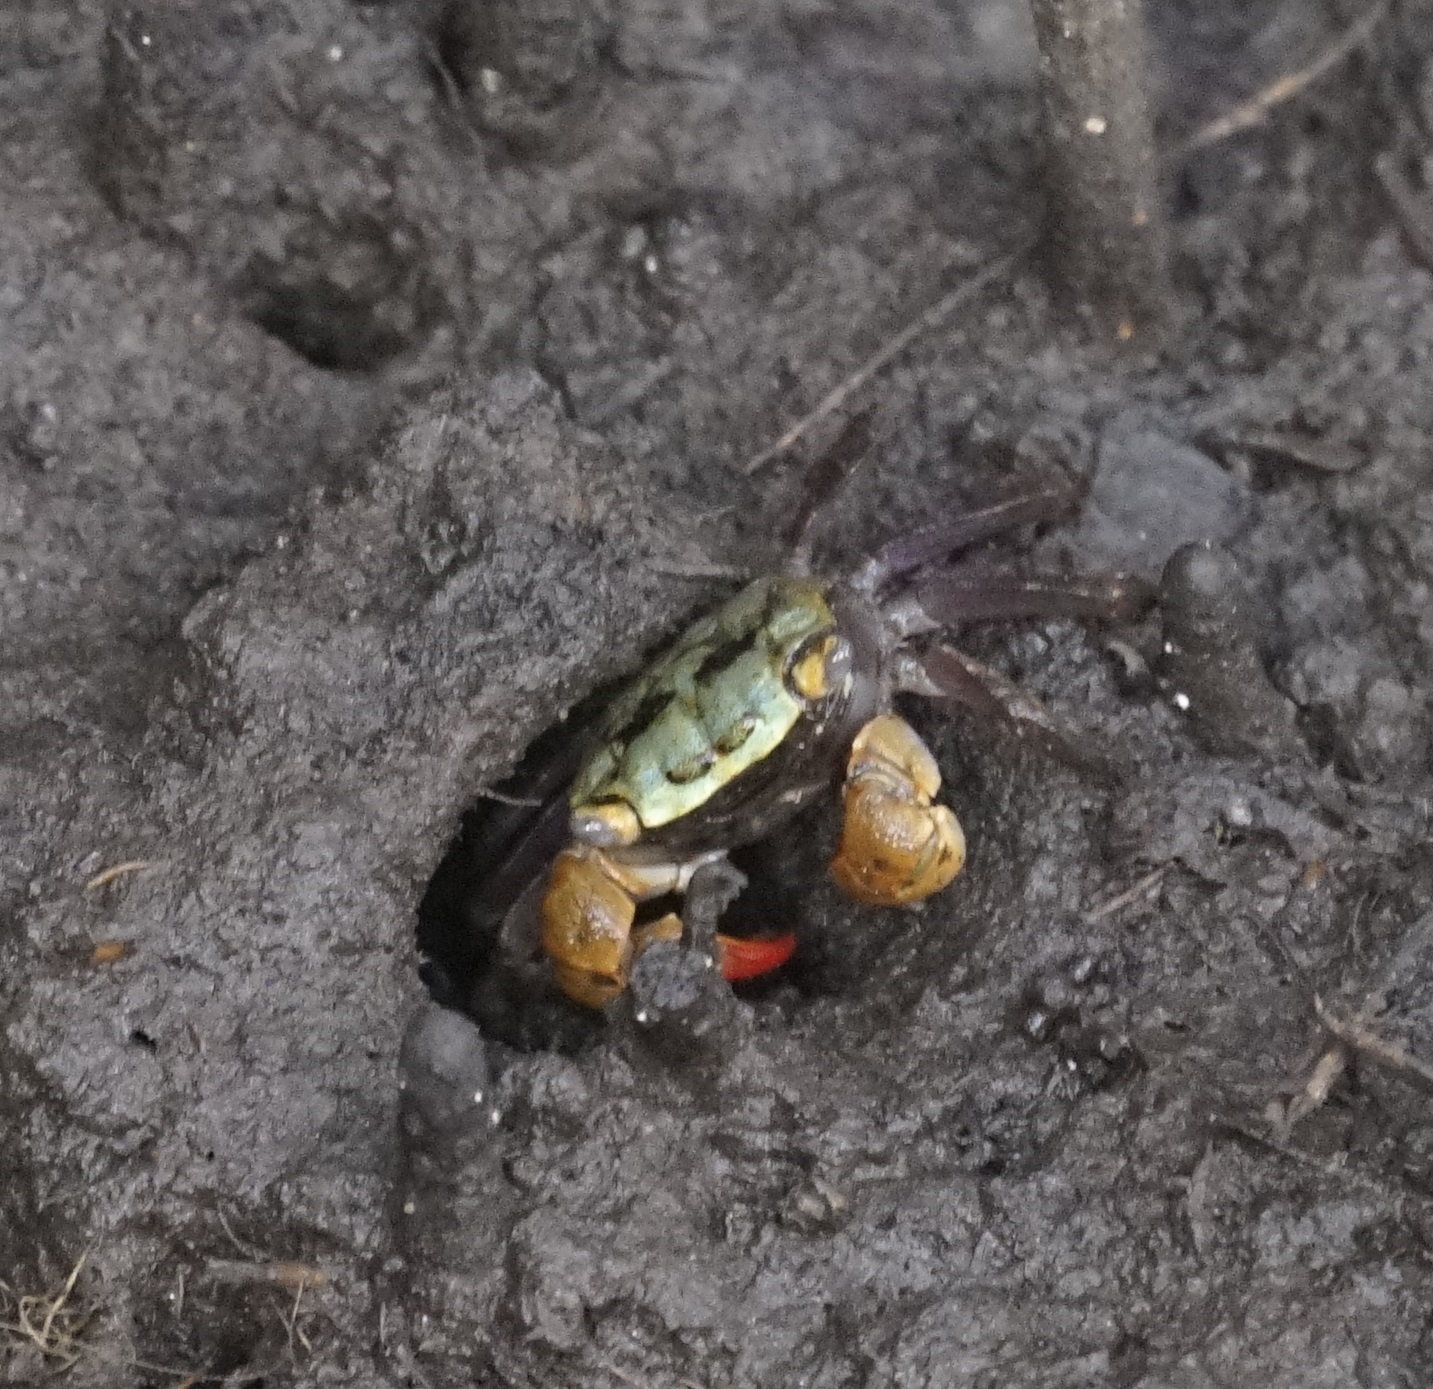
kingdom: Animalia
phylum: Arthropoda
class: Malacostraca
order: Decapoda
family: Sesarmidae
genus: Parasesarma
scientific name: Parasesarma erythodactylum
